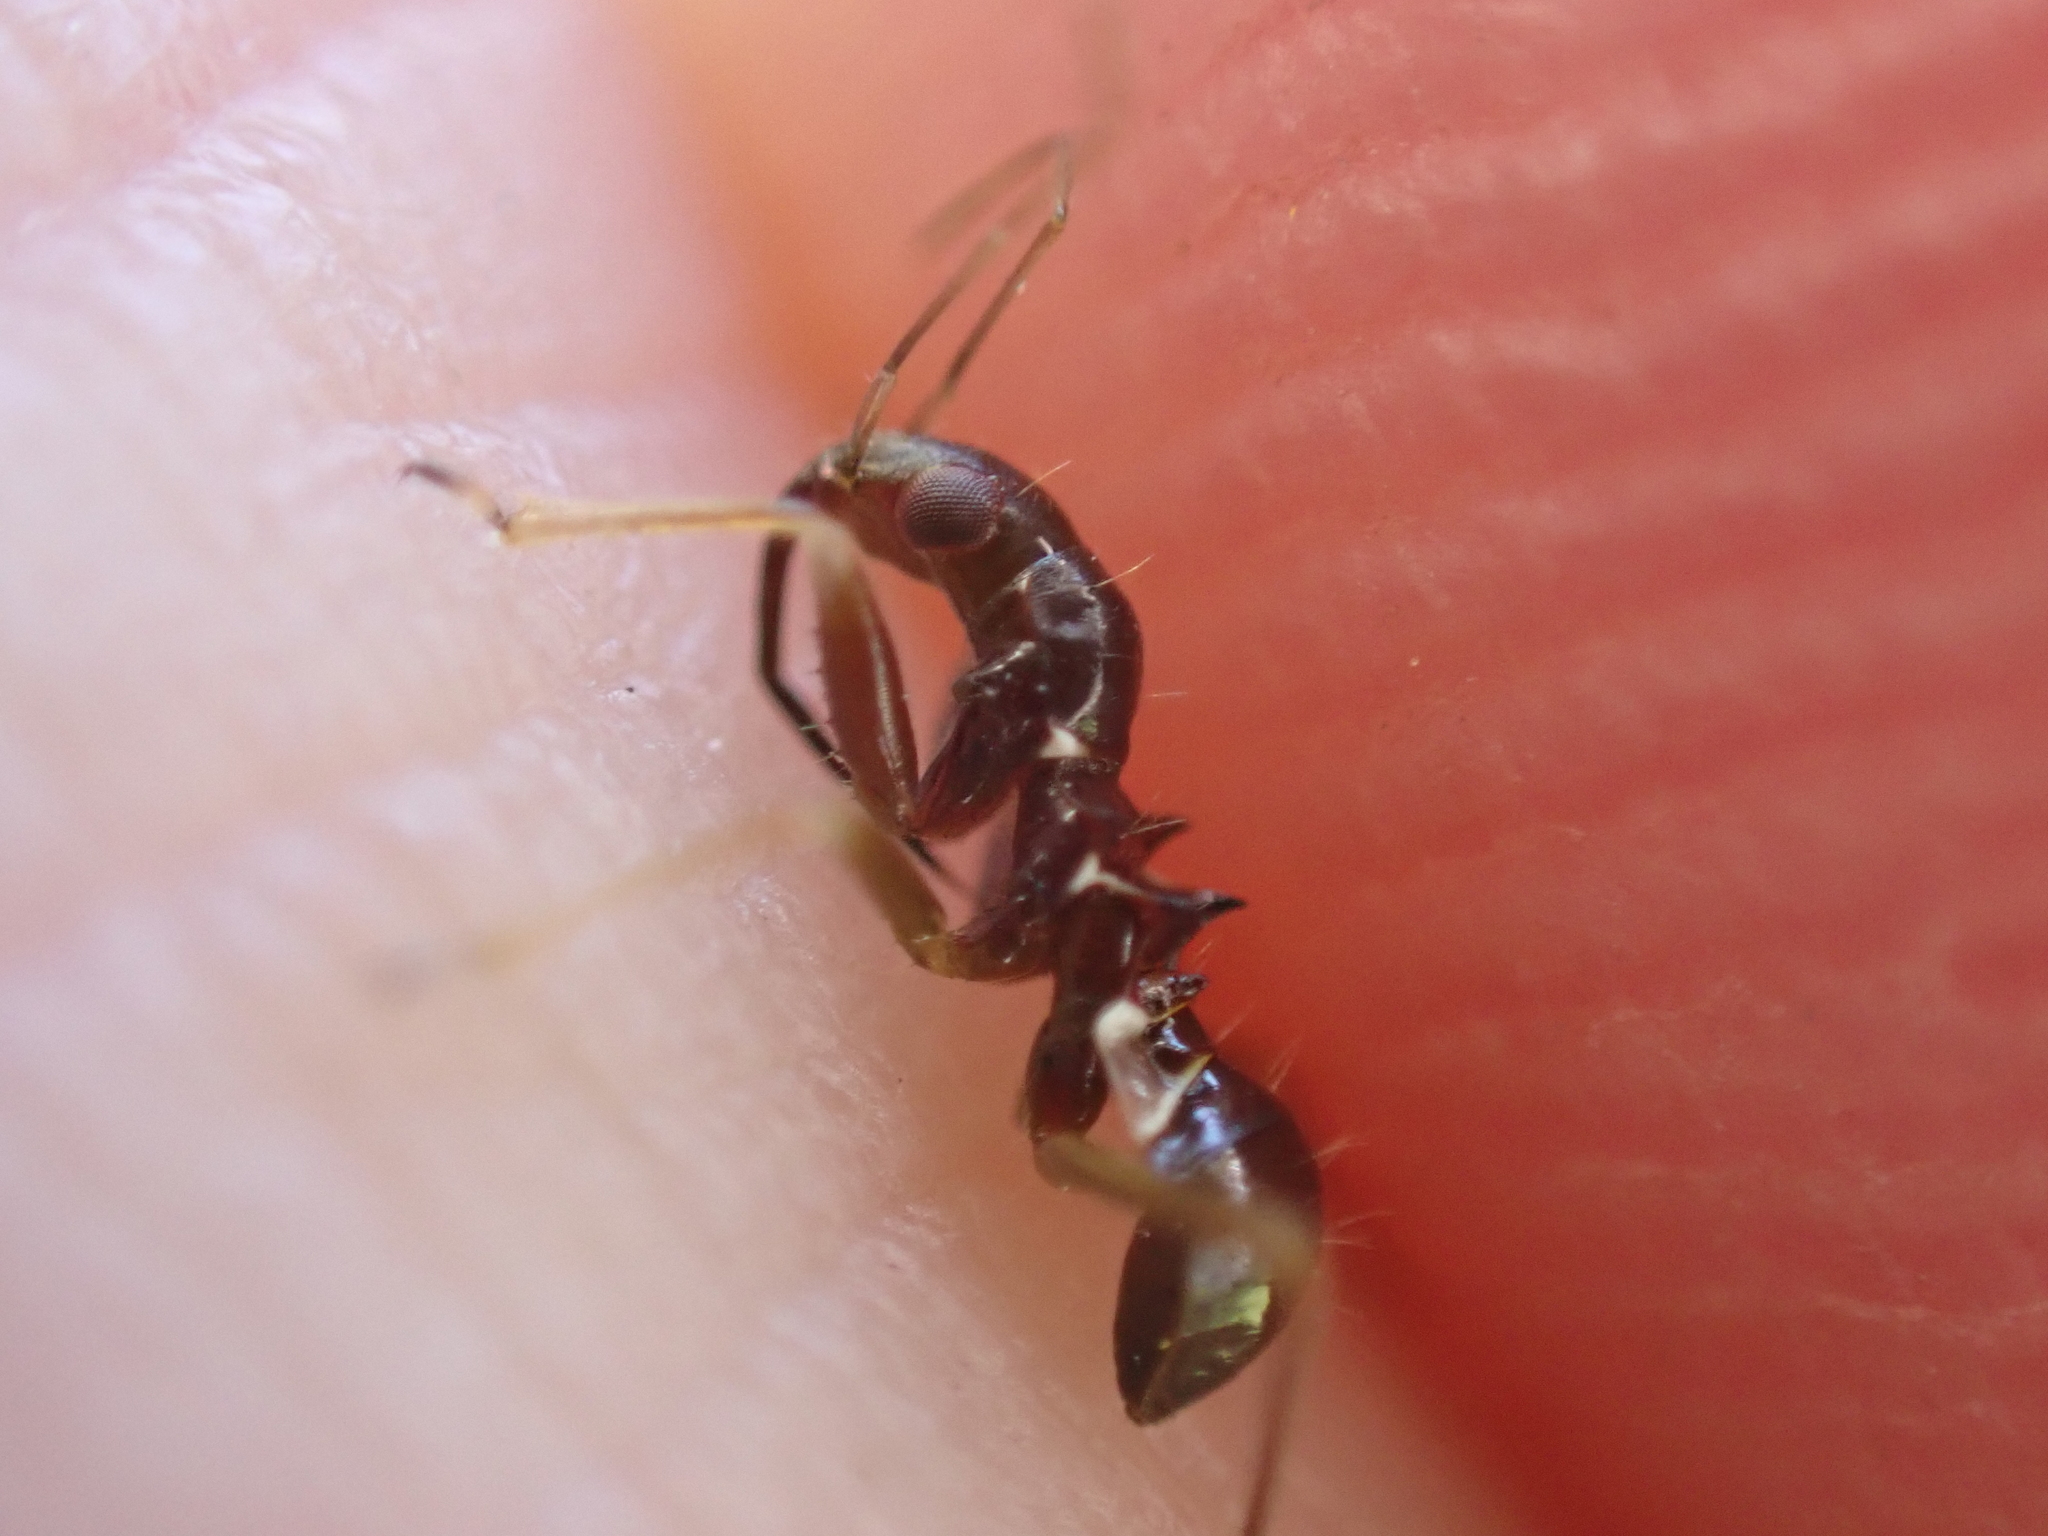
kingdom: Animalia
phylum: Arthropoda
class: Insecta
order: Hemiptera
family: Nabidae
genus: Himacerus
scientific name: Himacerus mirmicoides
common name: Ant damsel bug
